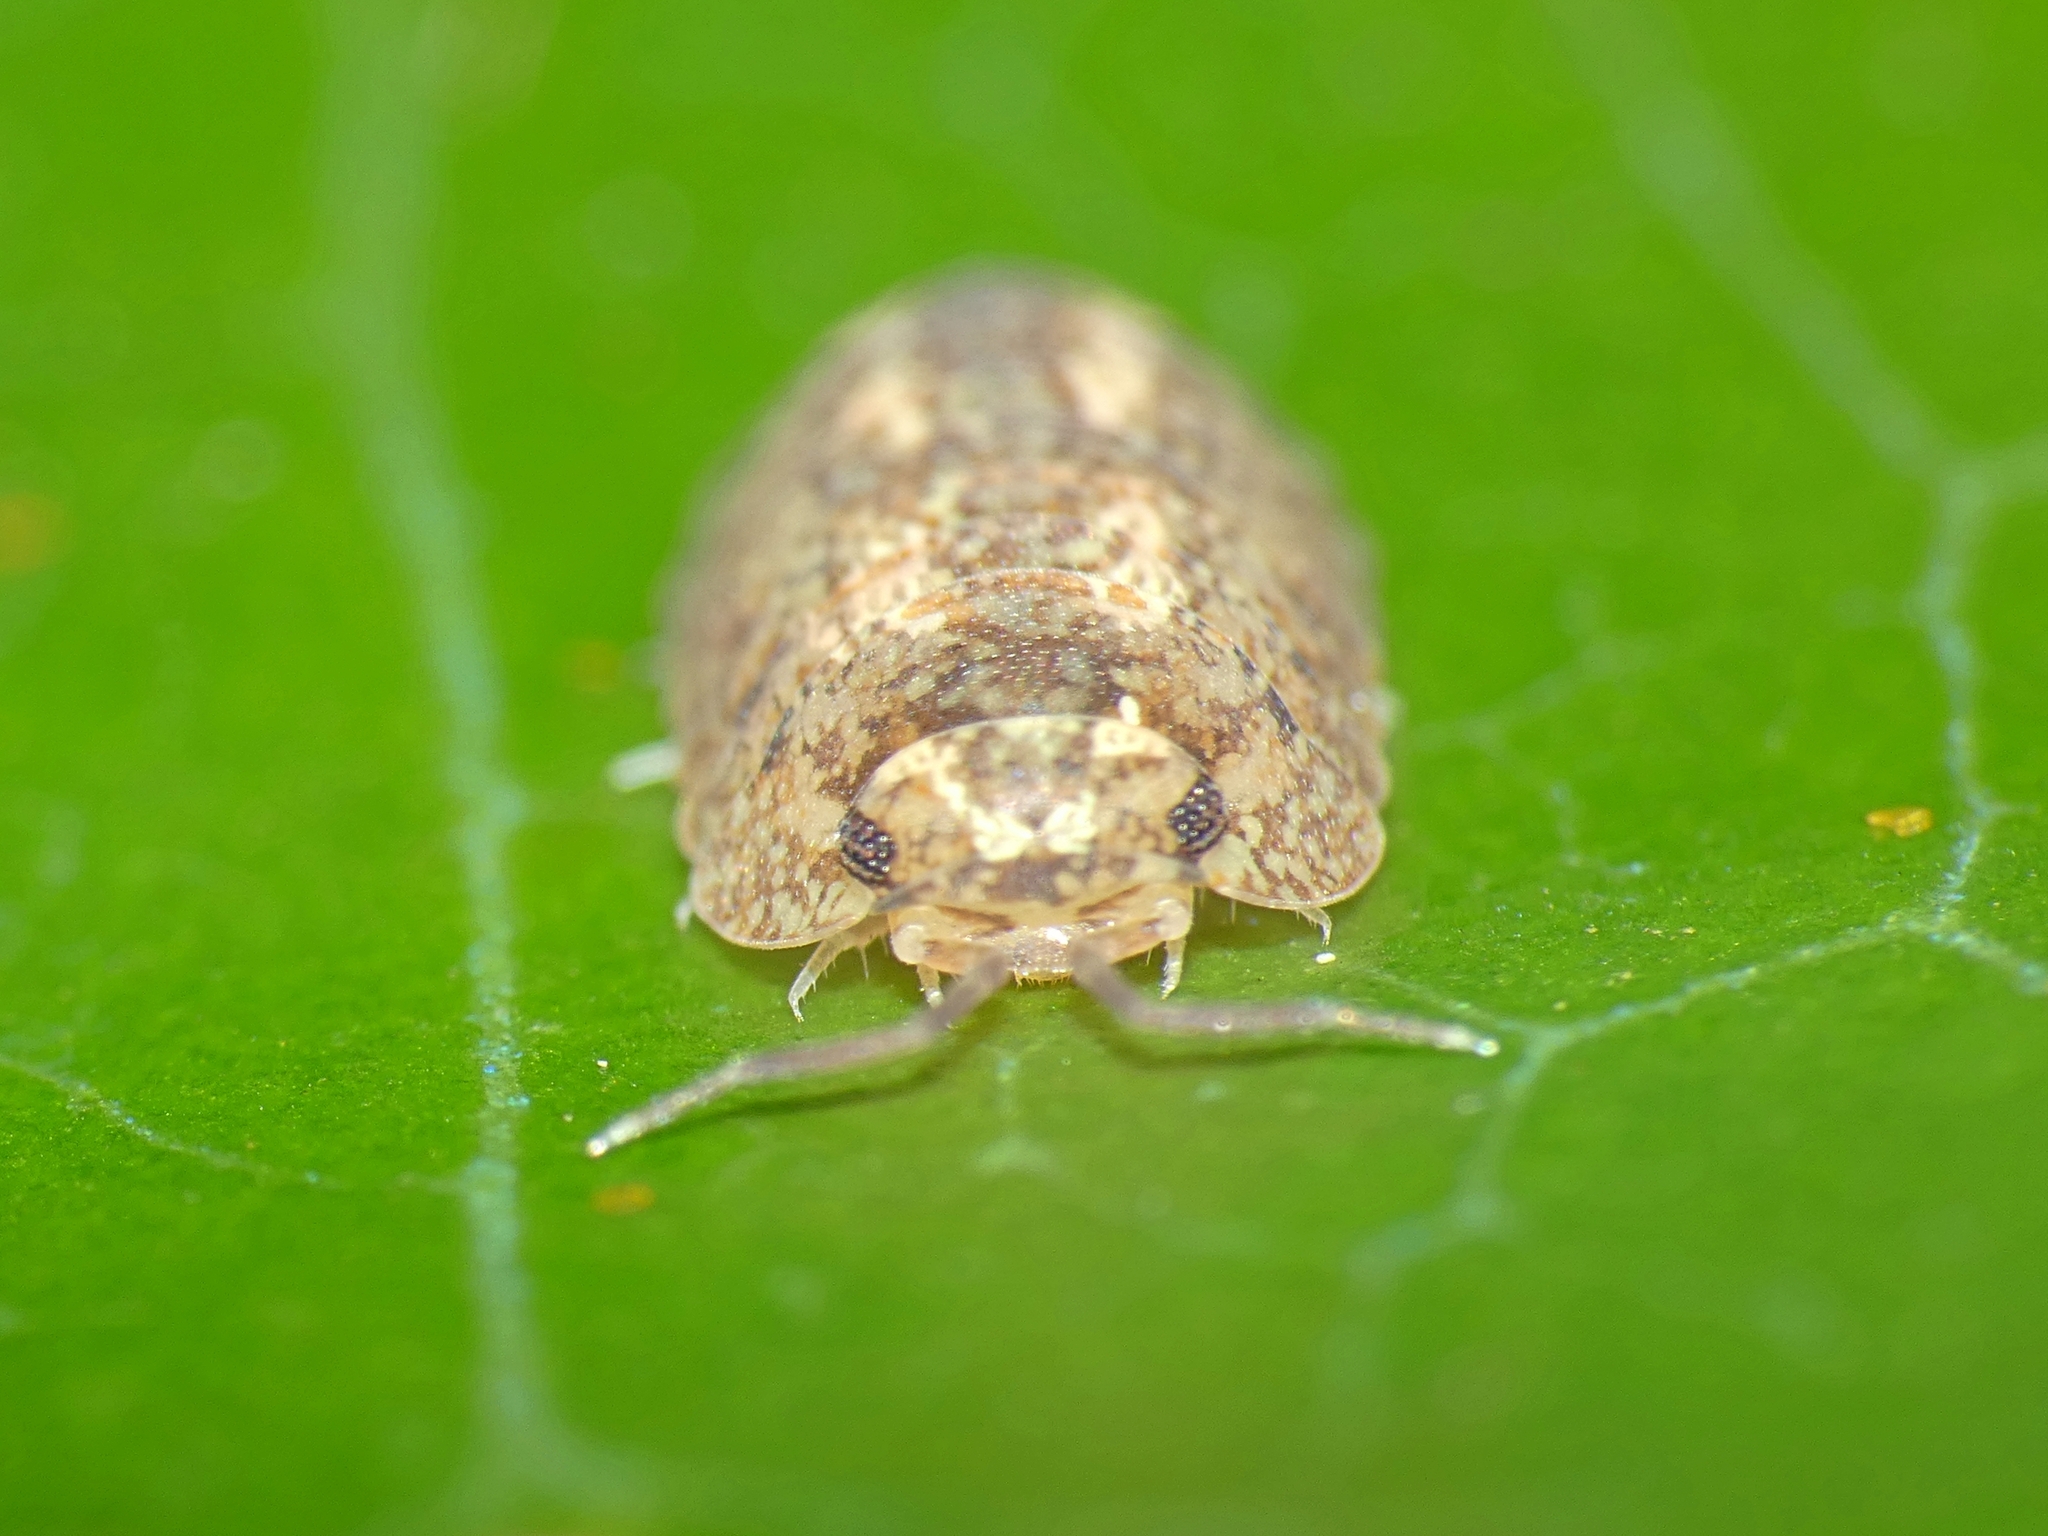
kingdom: Animalia
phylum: Arthropoda
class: Malacostraca
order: Isopoda
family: Armadillidae
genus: Cubaris
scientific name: Cubaris marmorata
